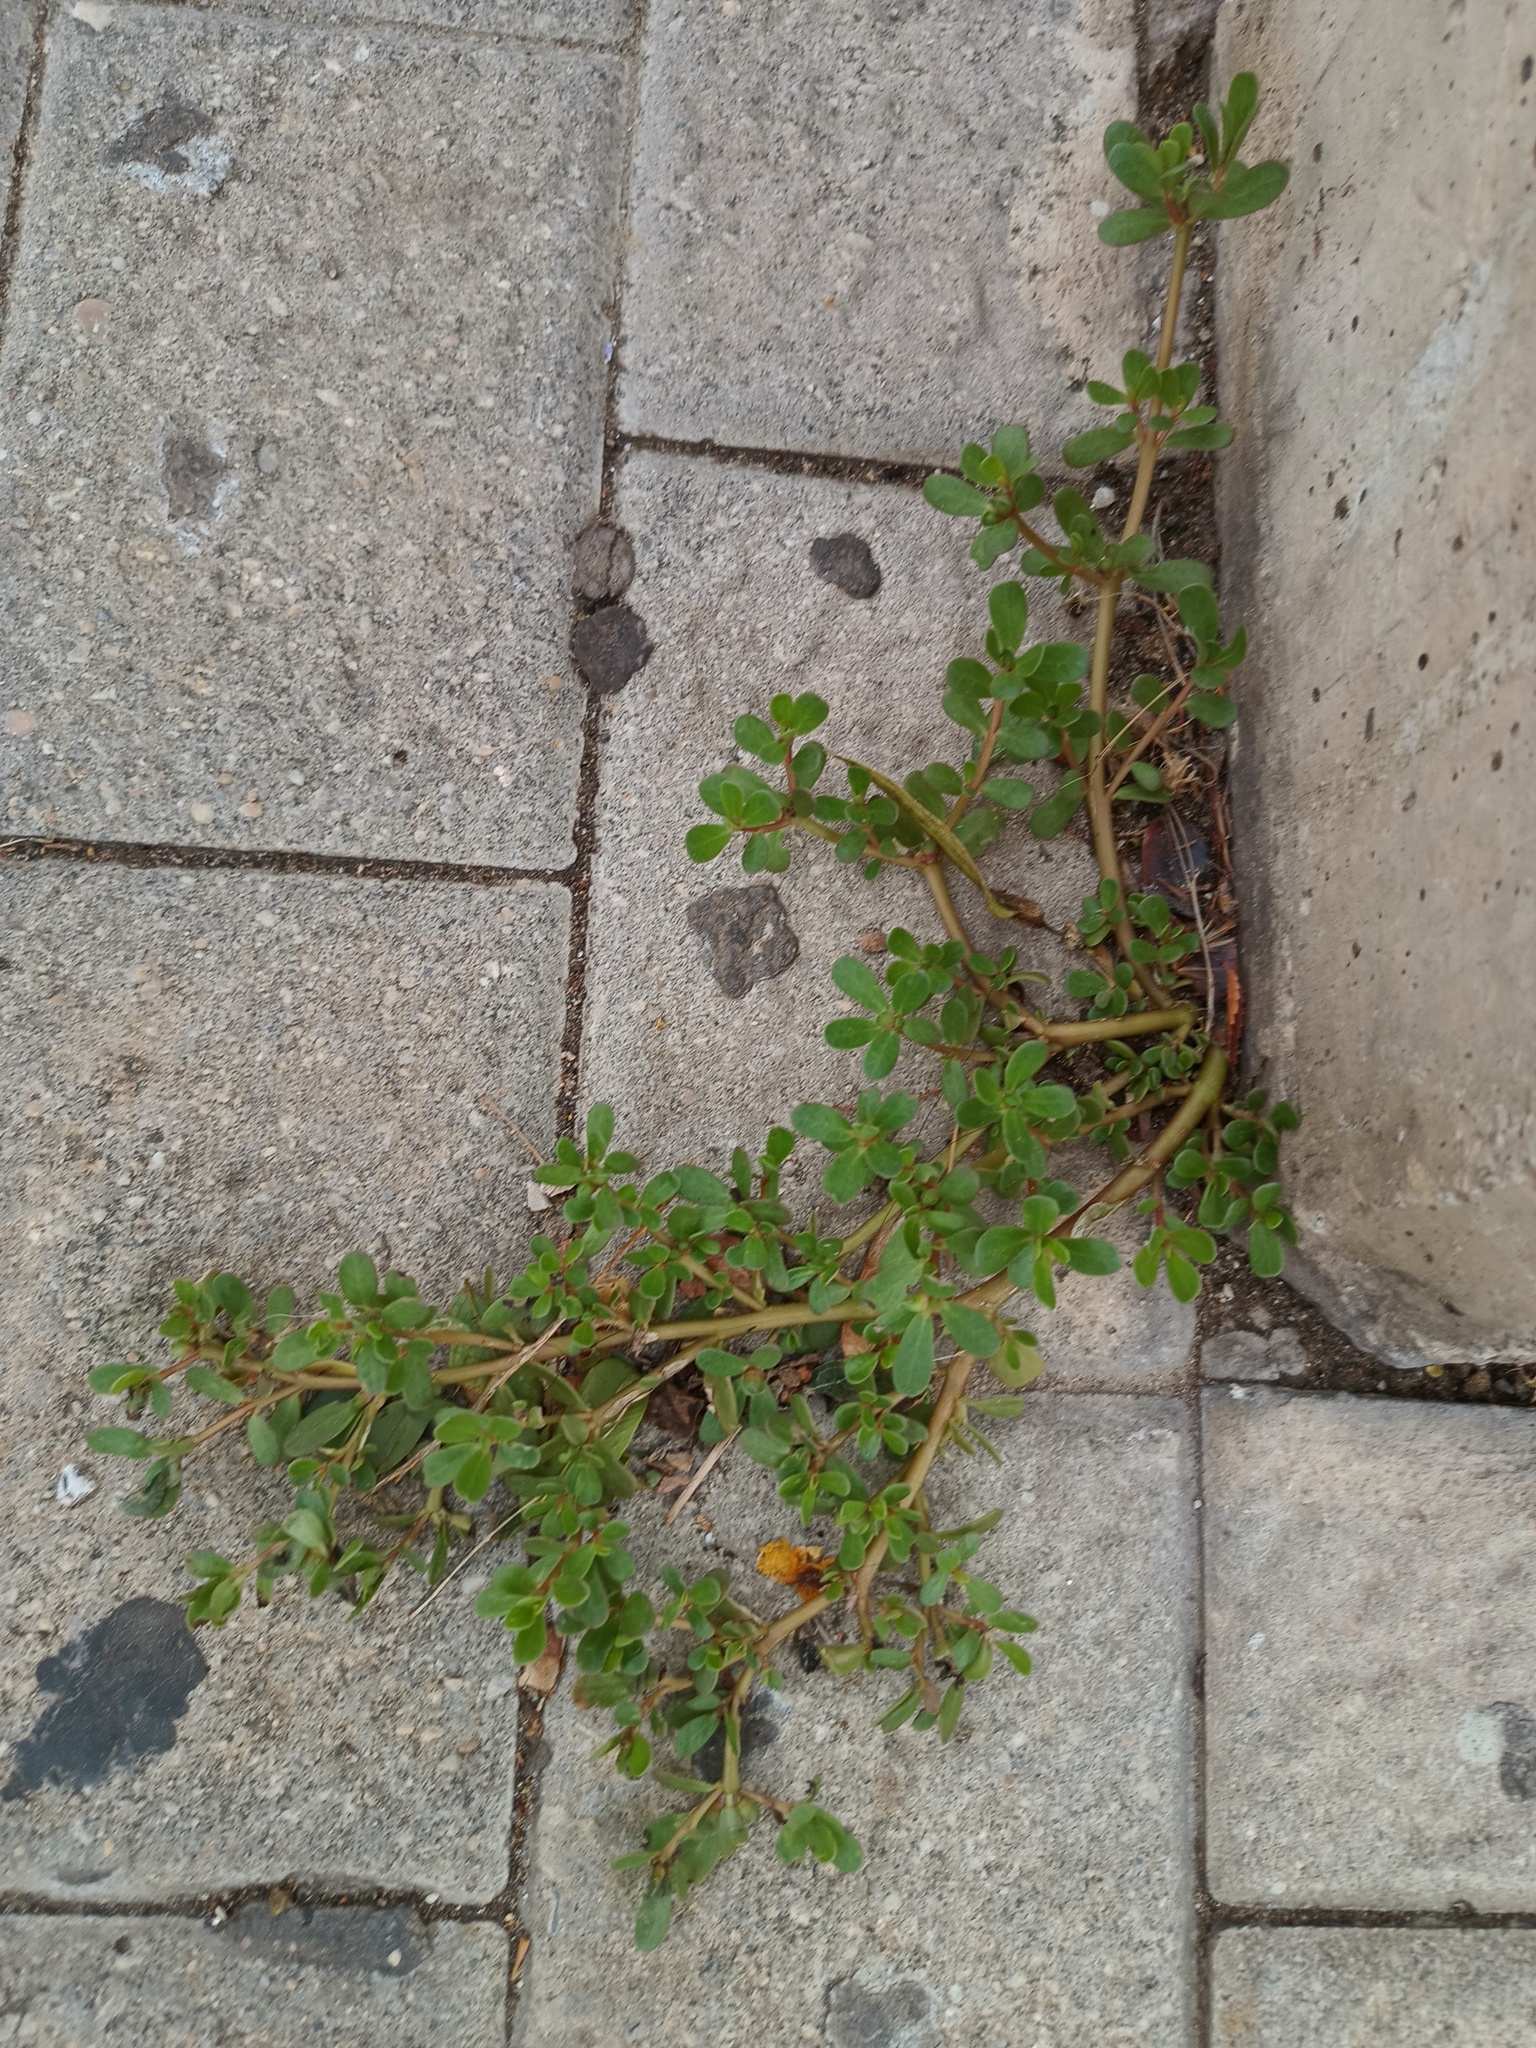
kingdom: Plantae
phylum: Tracheophyta
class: Magnoliopsida
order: Caryophyllales
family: Portulacaceae
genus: Portulaca
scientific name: Portulaca oleracea
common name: Common purslane
